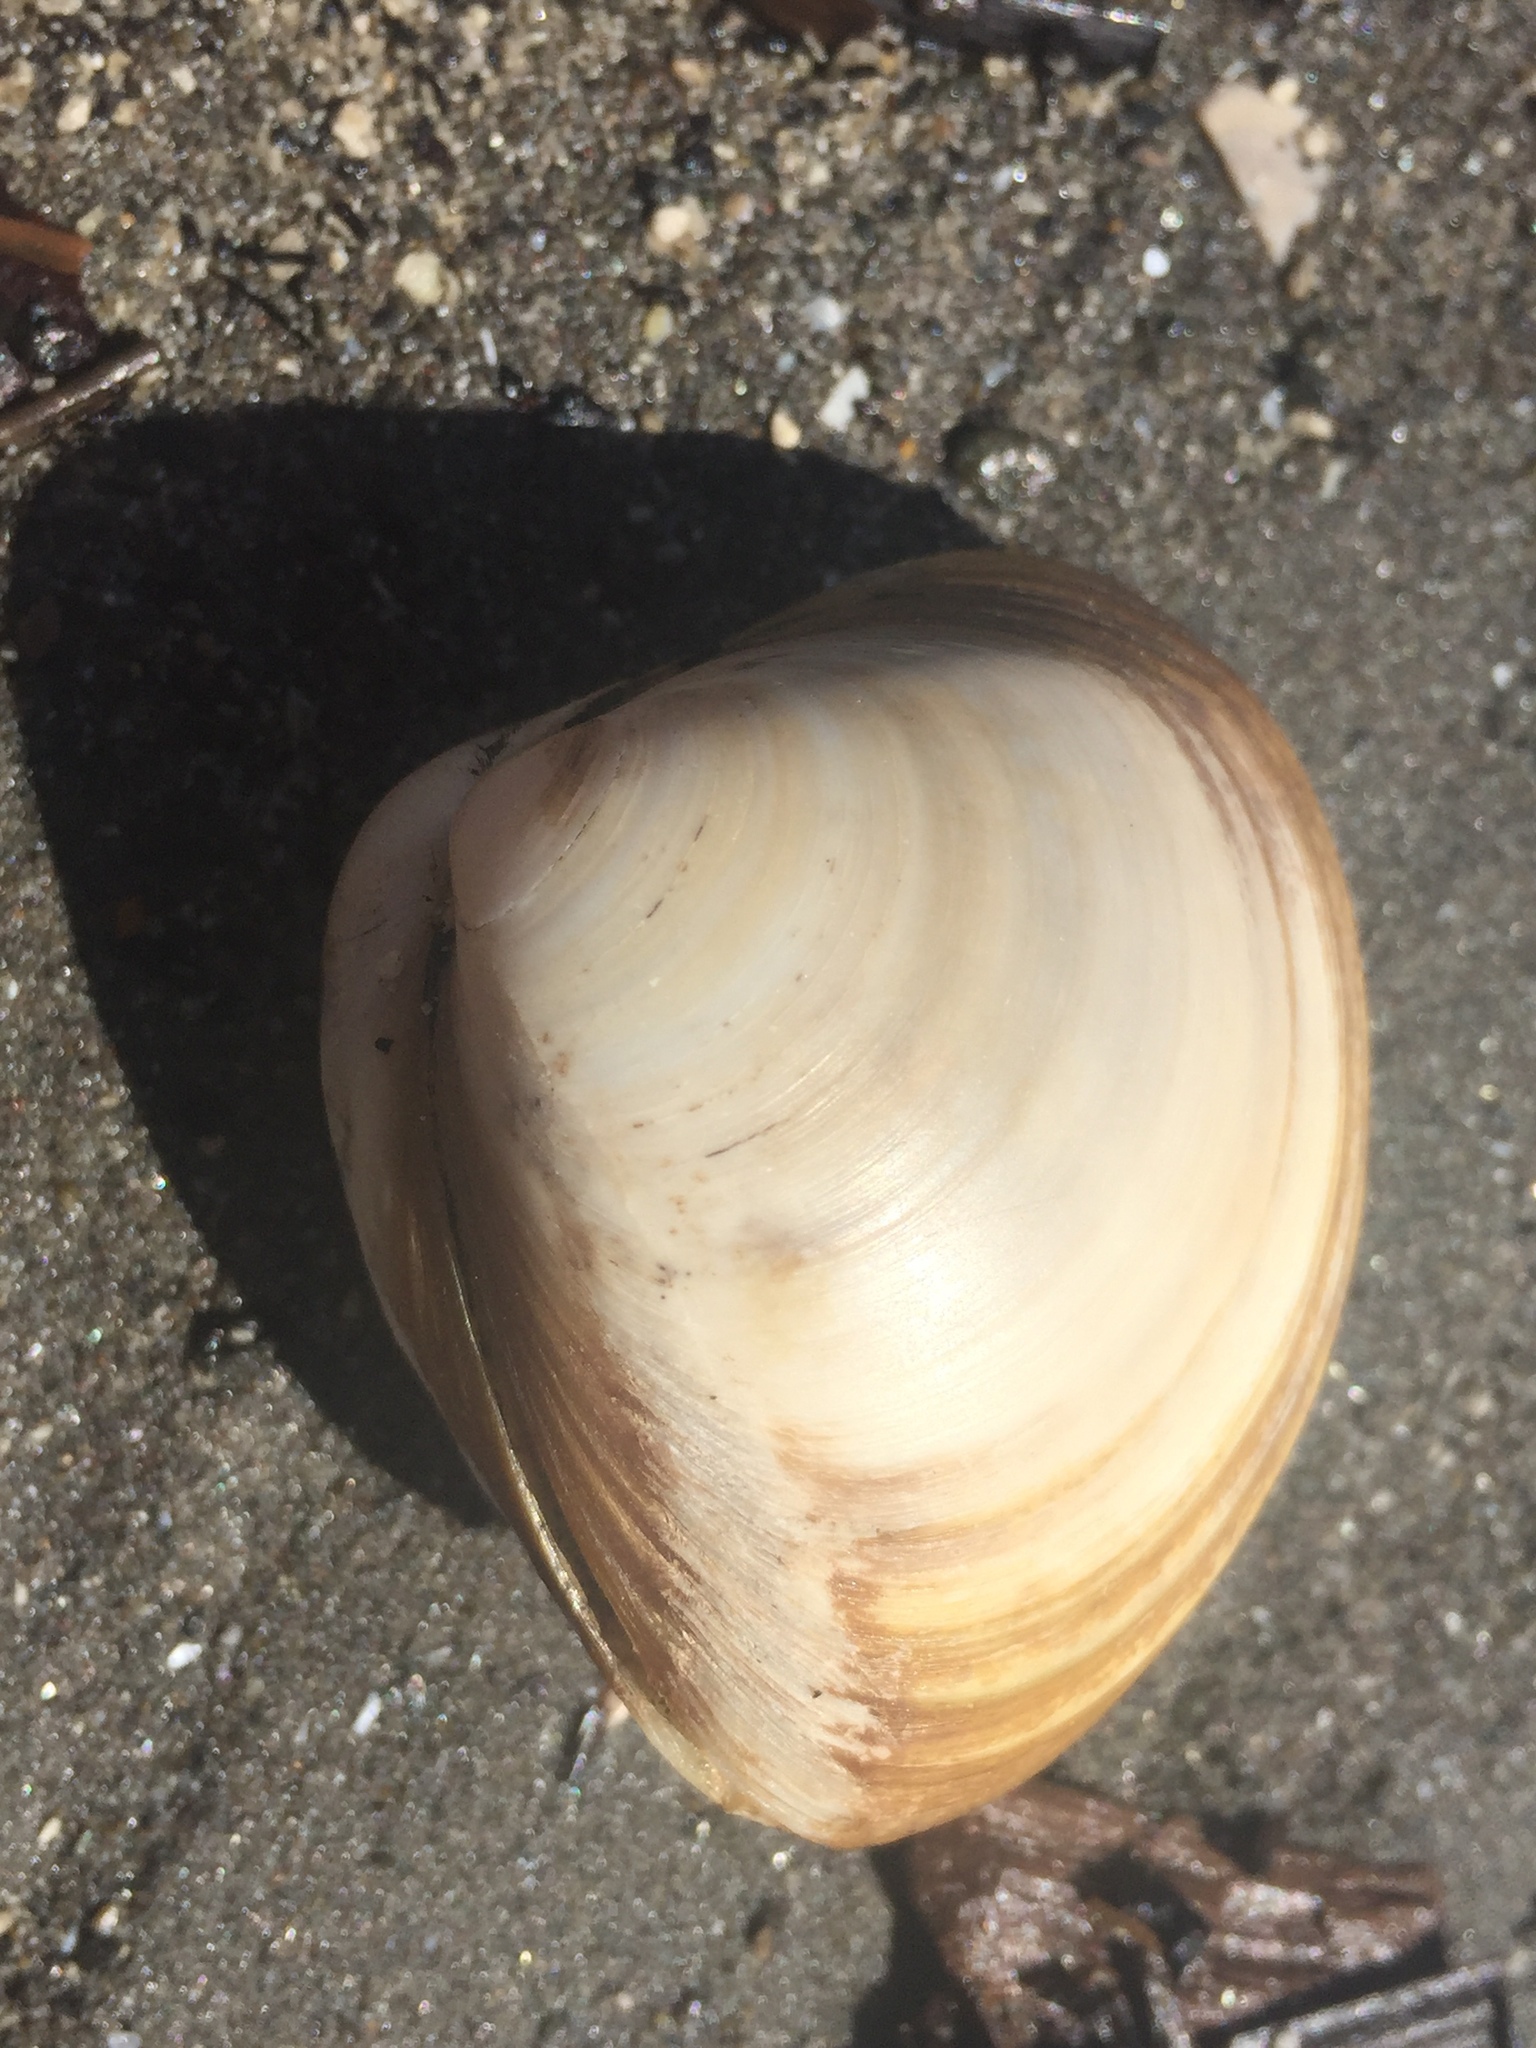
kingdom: Animalia
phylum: Mollusca
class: Bivalvia
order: Venerida
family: Mactridae
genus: Spisula
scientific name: Spisula discors
